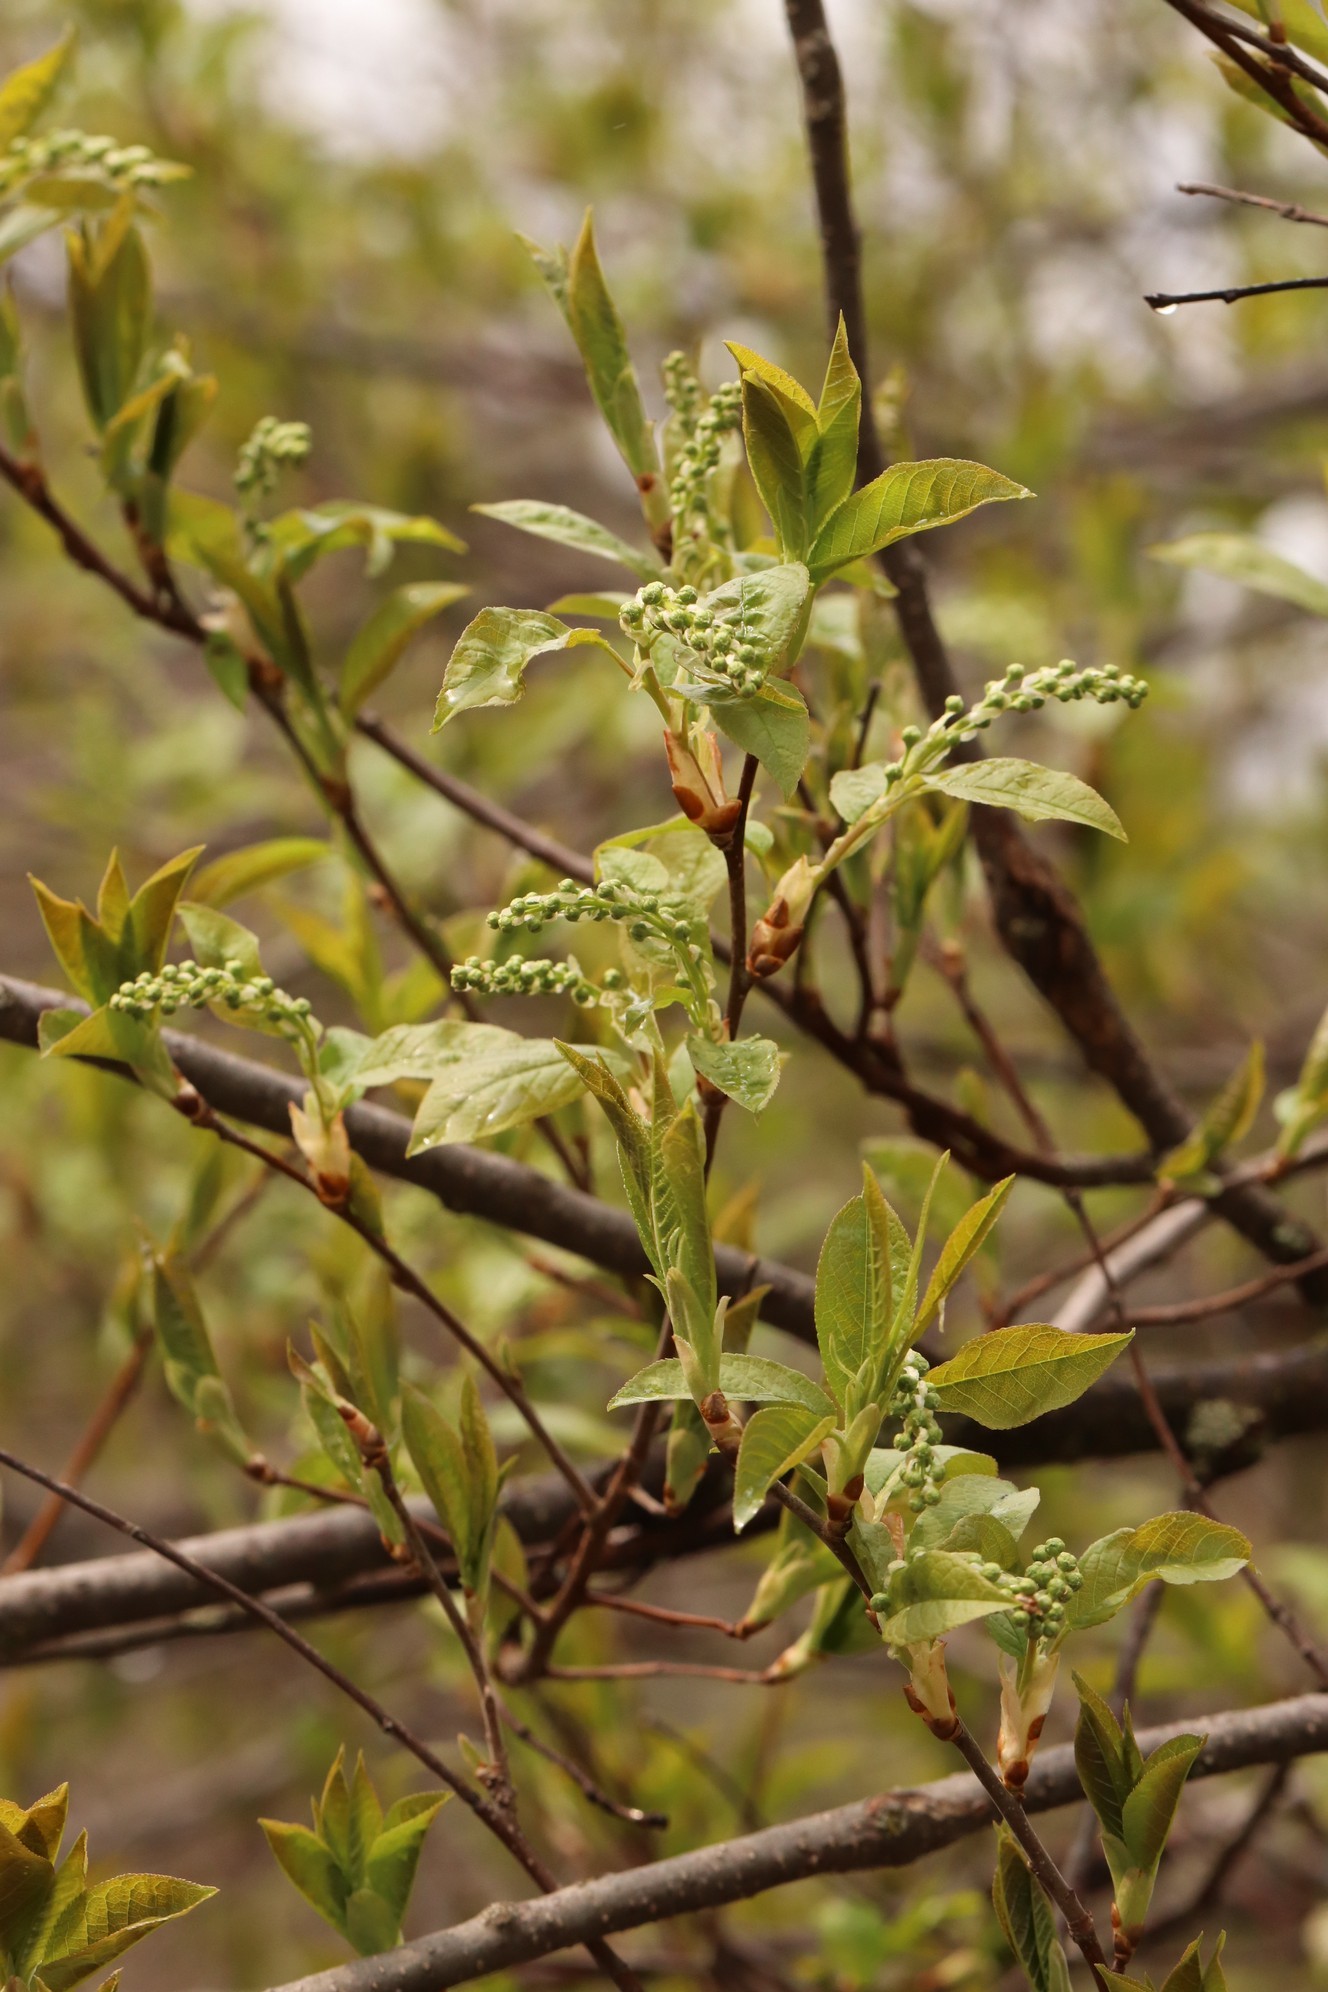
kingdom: Plantae
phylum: Tracheophyta
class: Magnoliopsida
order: Rosales
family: Rosaceae
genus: Prunus
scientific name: Prunus padus
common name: Bird cherry
